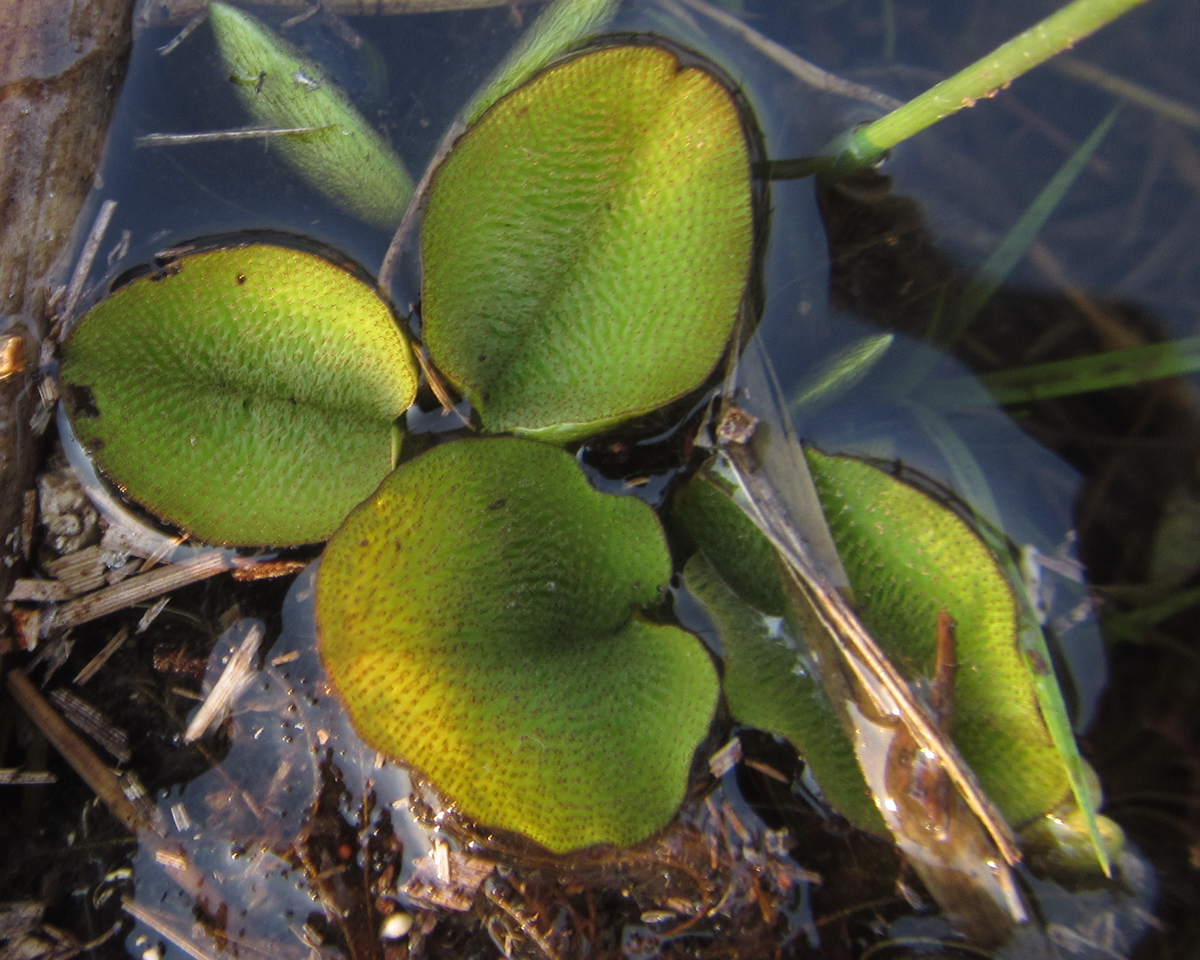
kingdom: Plantae
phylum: Tracheophyta
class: Polypodiopsida
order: Salviniales
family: Salviniaceae
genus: Salvinia
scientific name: Salvinia molesta
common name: Kariba weed
